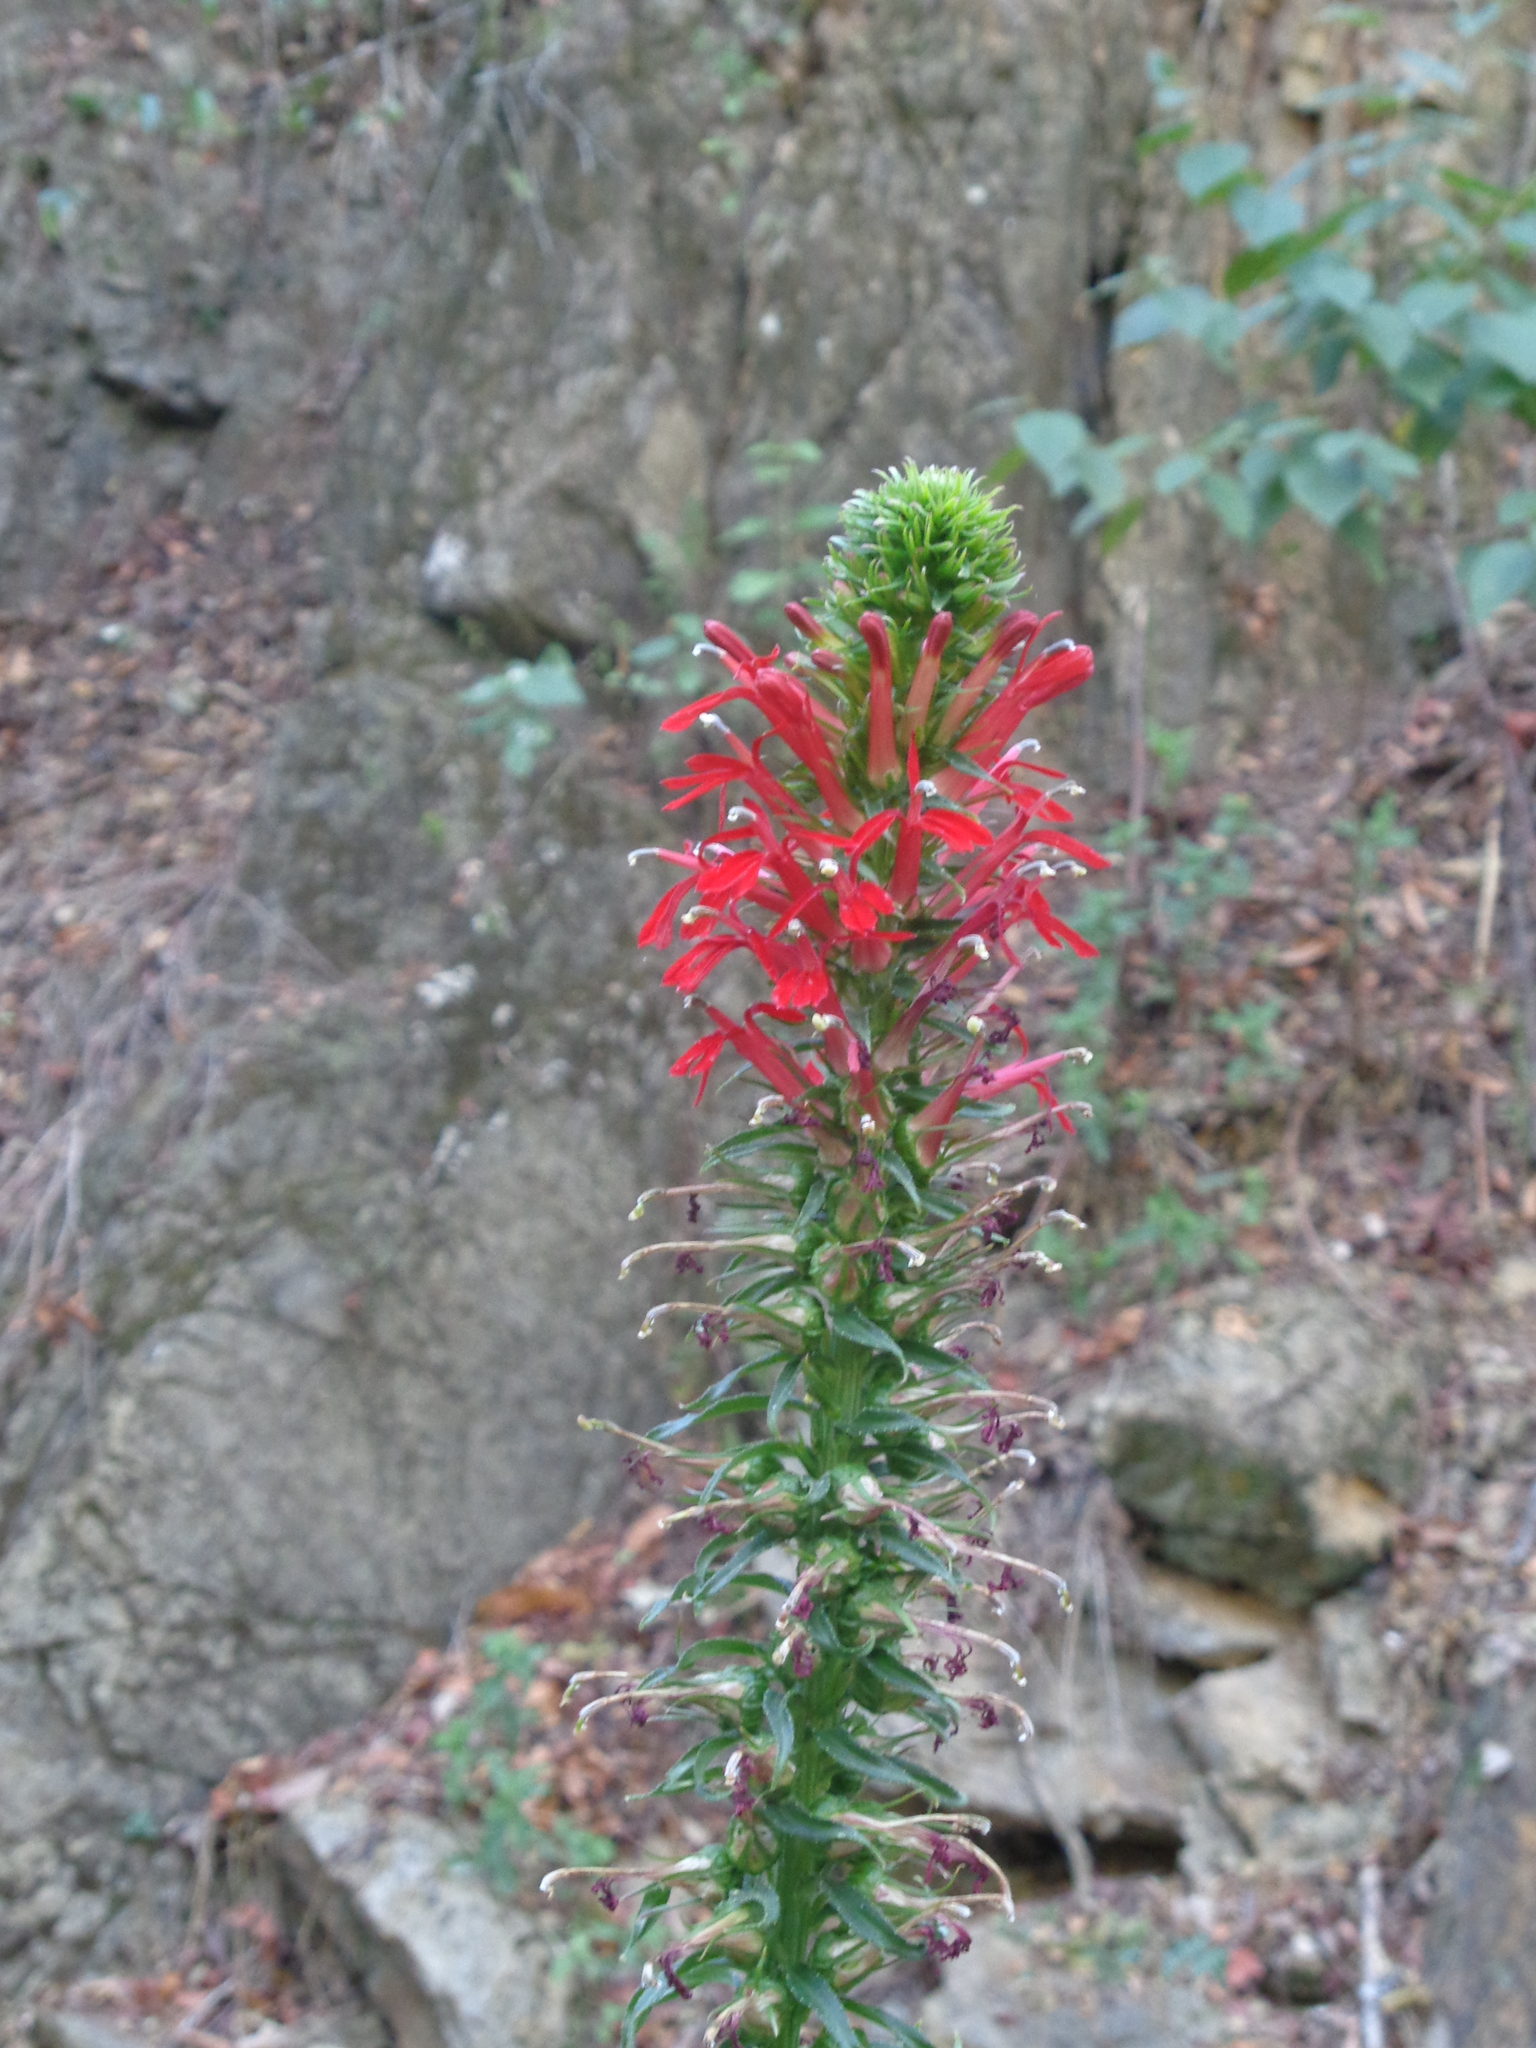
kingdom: Plantae
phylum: Tracheophyta
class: Magnoliopsida
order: Asterales
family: Campanulaceae
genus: Lobelia
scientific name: Lobelia cardinalis
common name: Cardinal flower
